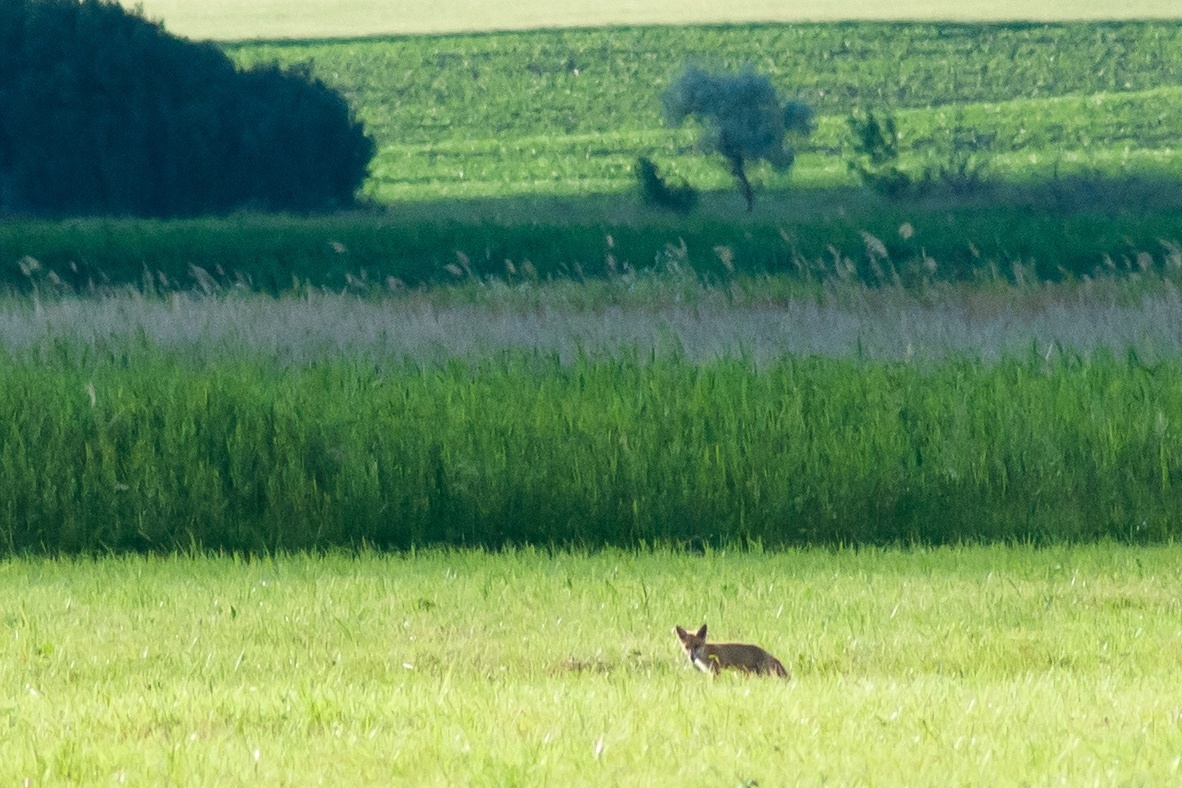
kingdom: Animalia
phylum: Chordata
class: Mammalia
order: Carnivora
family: Canidae
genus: Vulpes
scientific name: Vulpes vulpes
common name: Red fox
